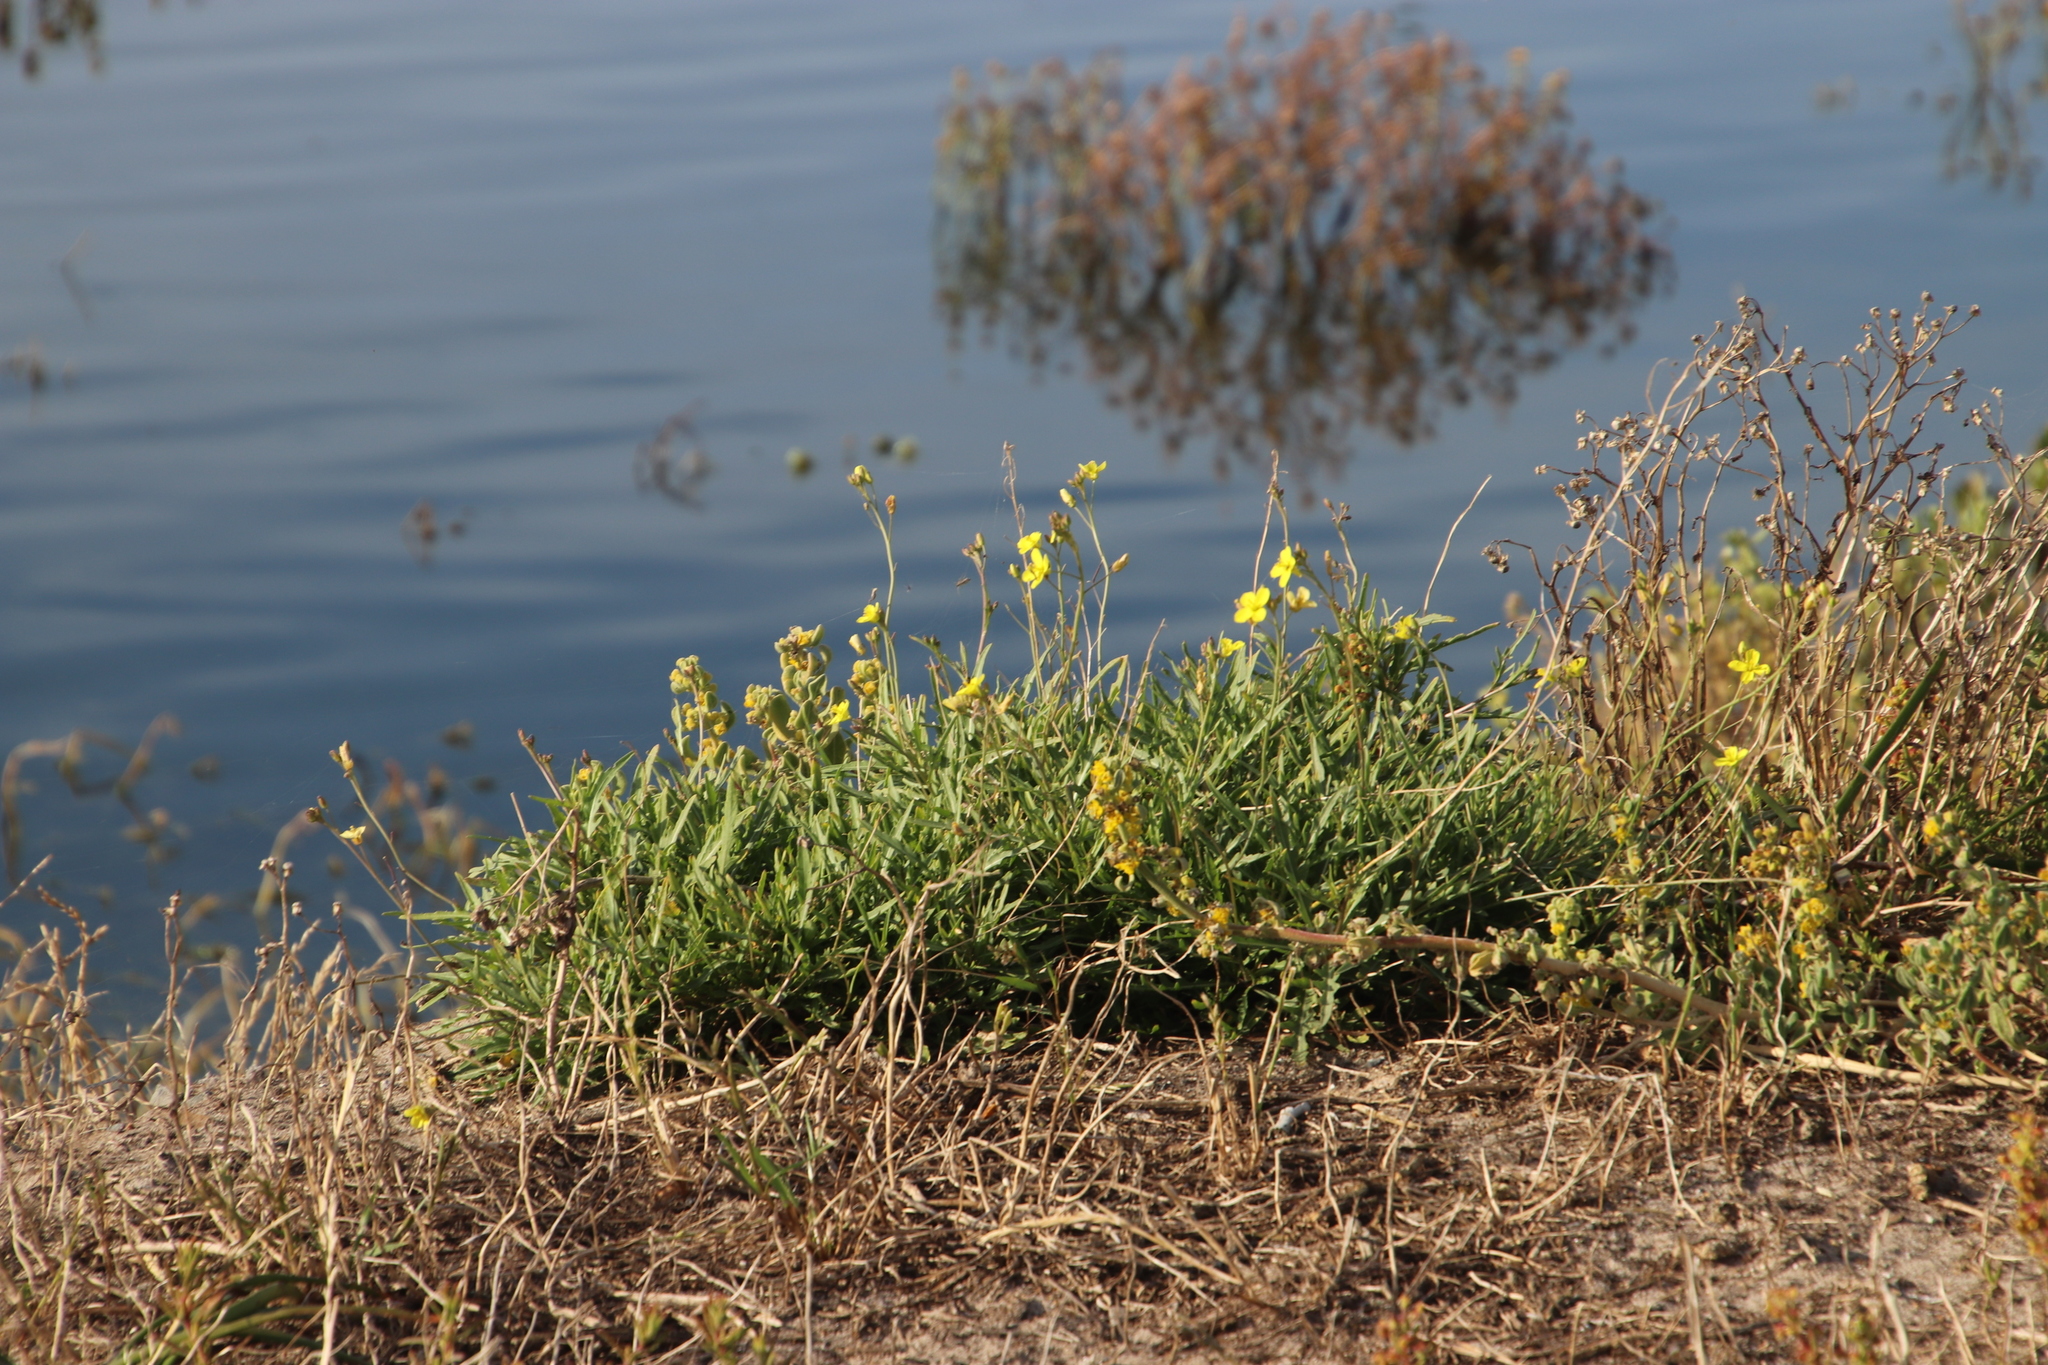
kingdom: Plantae
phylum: Tracheophyta
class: Magnoliopsida
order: Malpighiales
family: Linaceae
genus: Linum
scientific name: Linum africanum
